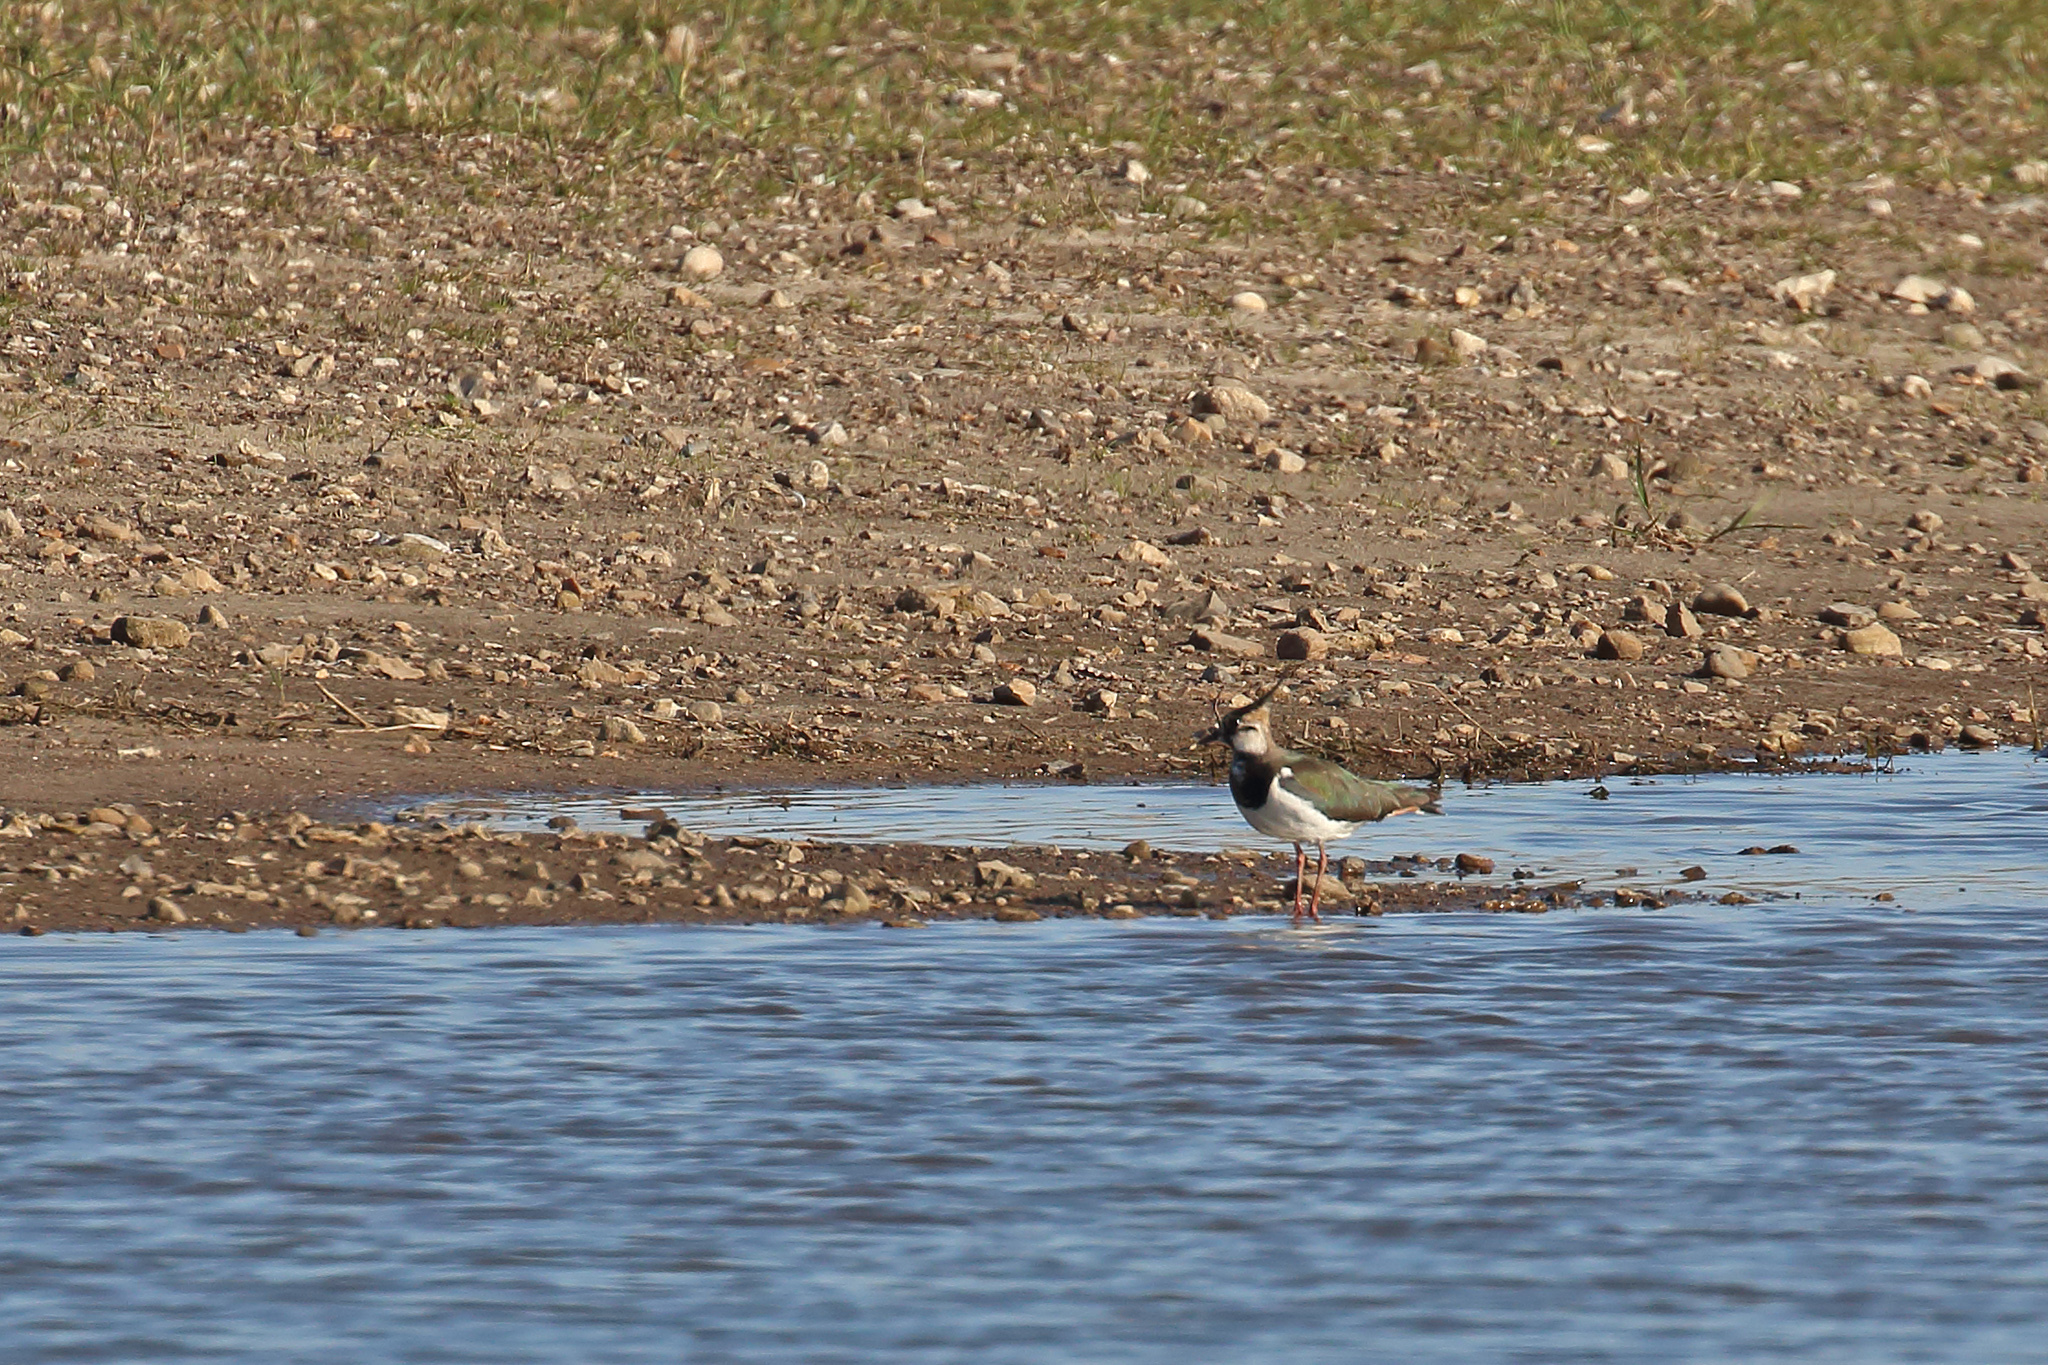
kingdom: Animalia
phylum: Chordata
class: Aves
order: Charadriiformes
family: Charadriidae
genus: Vanellus
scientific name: Vanellus vanellus
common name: Northern lapwing
